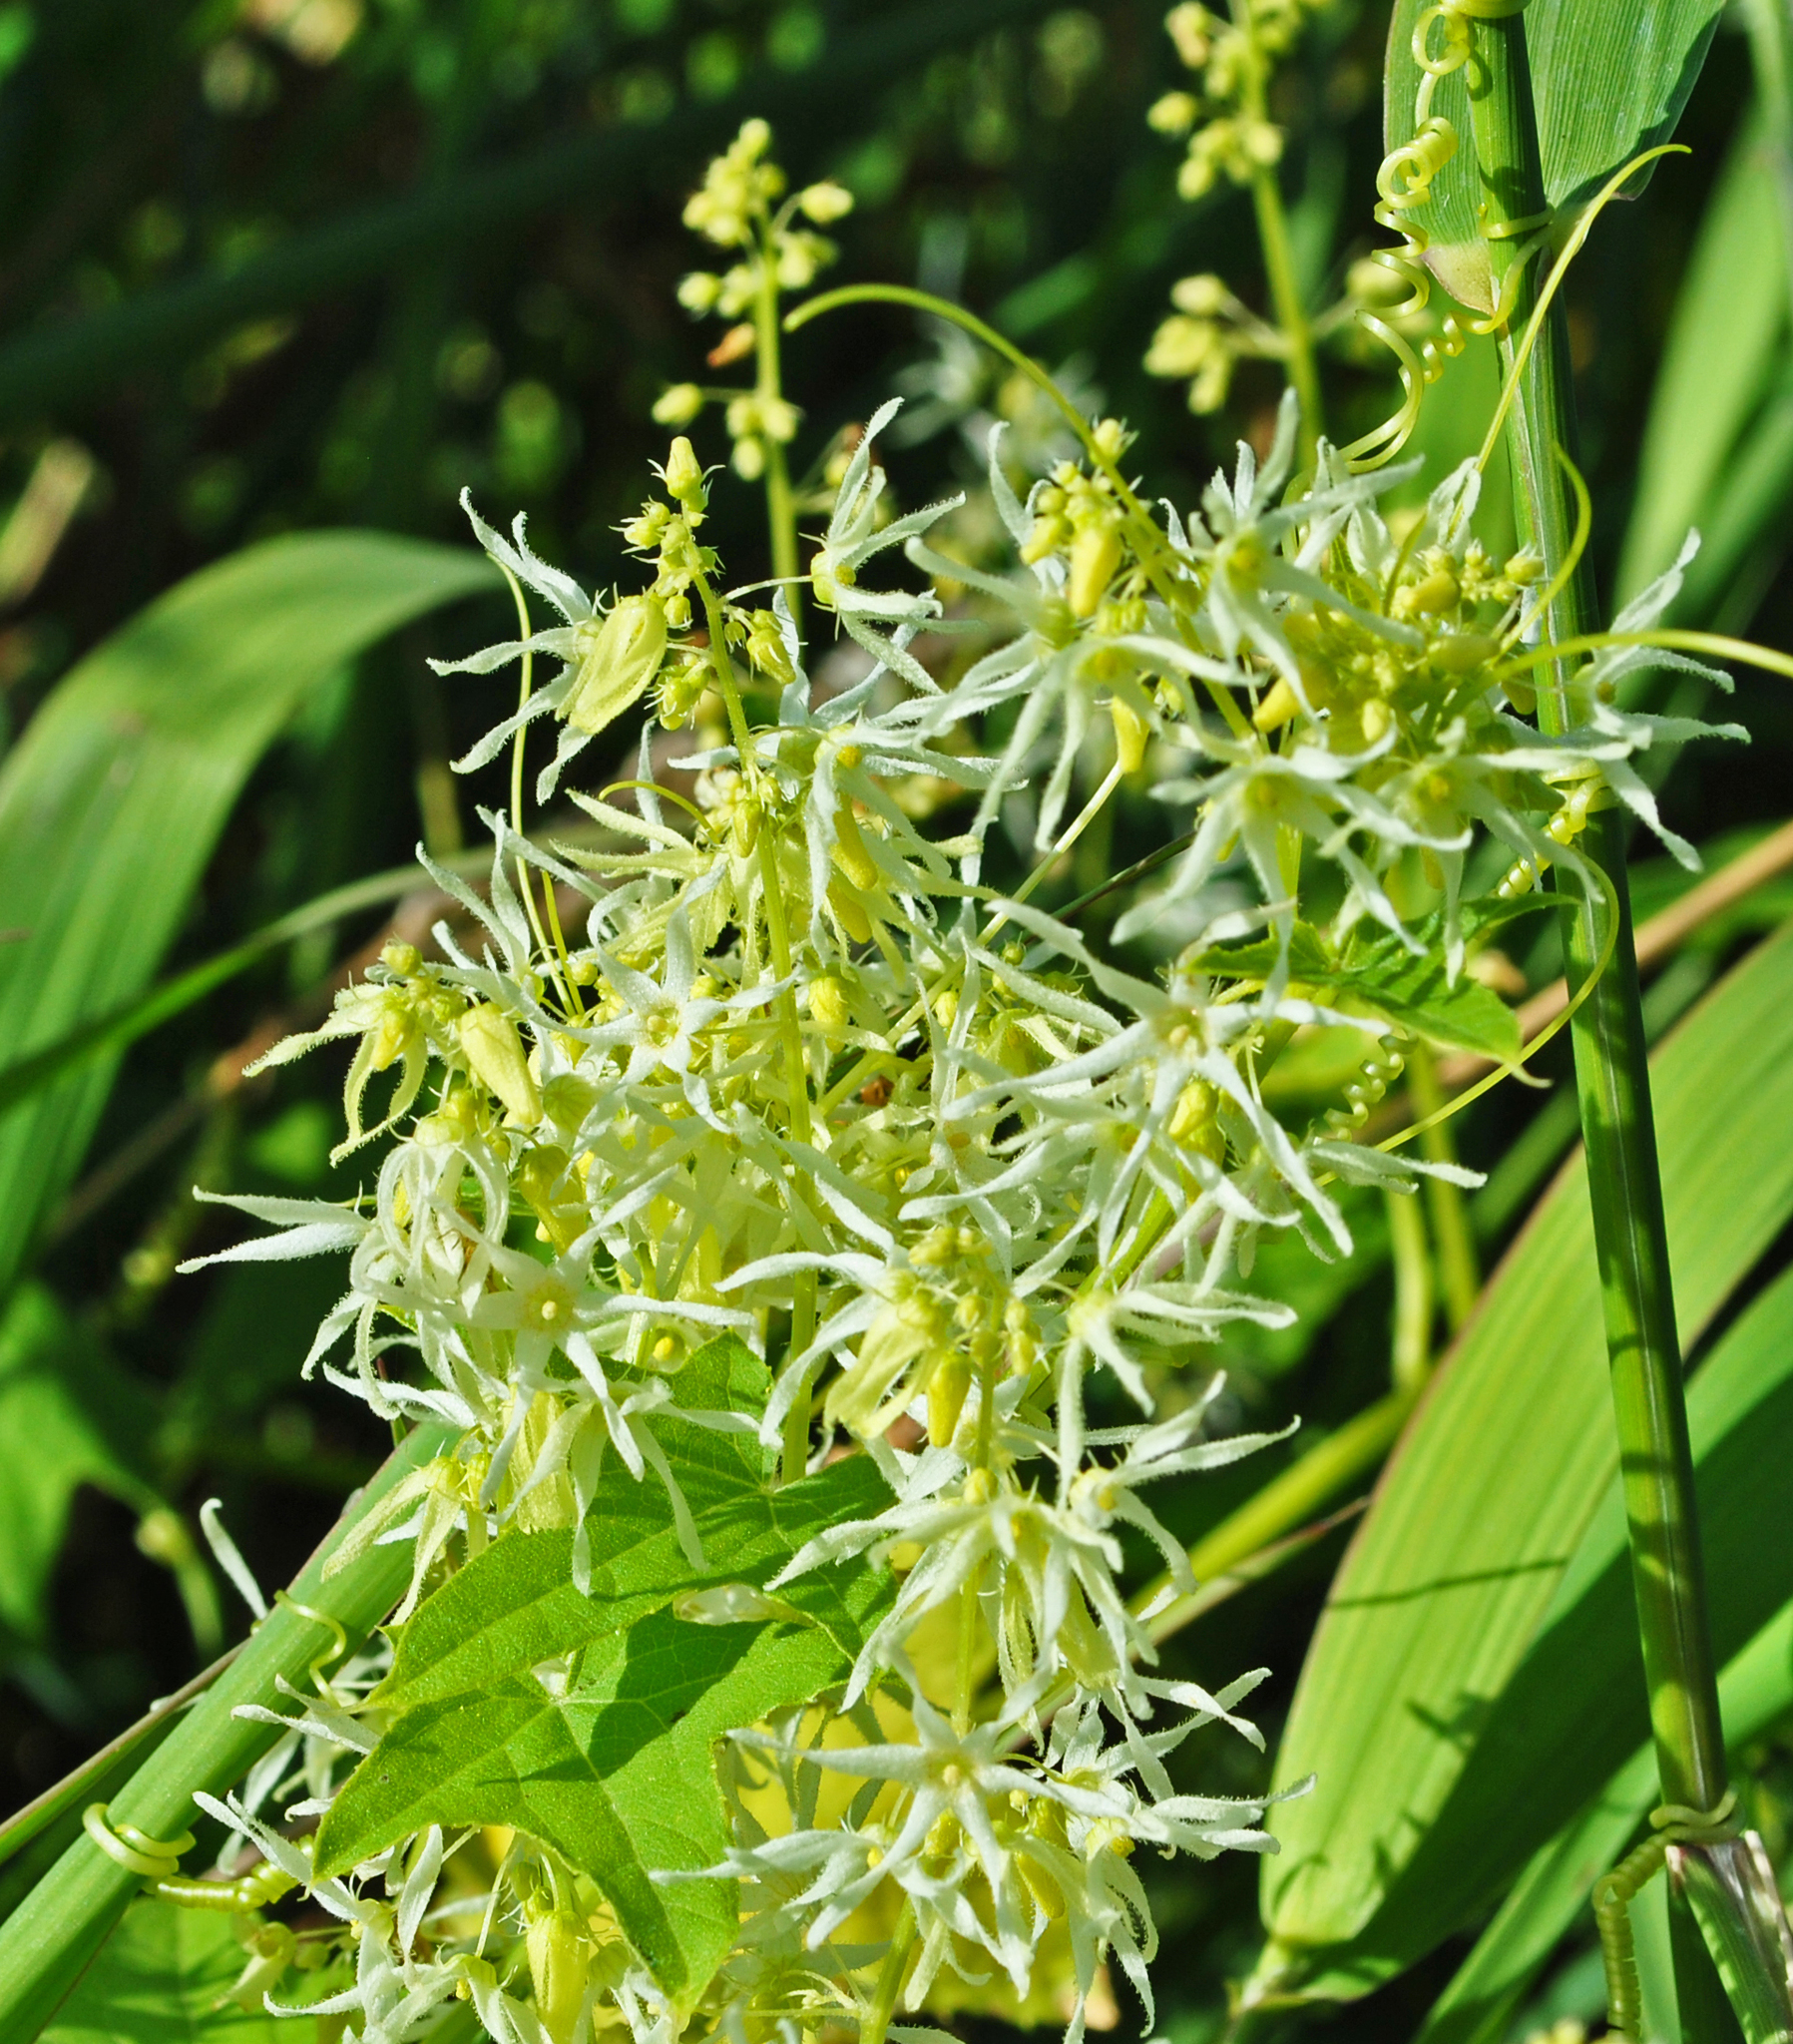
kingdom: Plantae
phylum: Tracheophyta
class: Magnoliopsida
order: Cucurbitales
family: Cucurbitaceae
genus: Echinocystis
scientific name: Echinocystis lobata
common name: Wild cucumber
